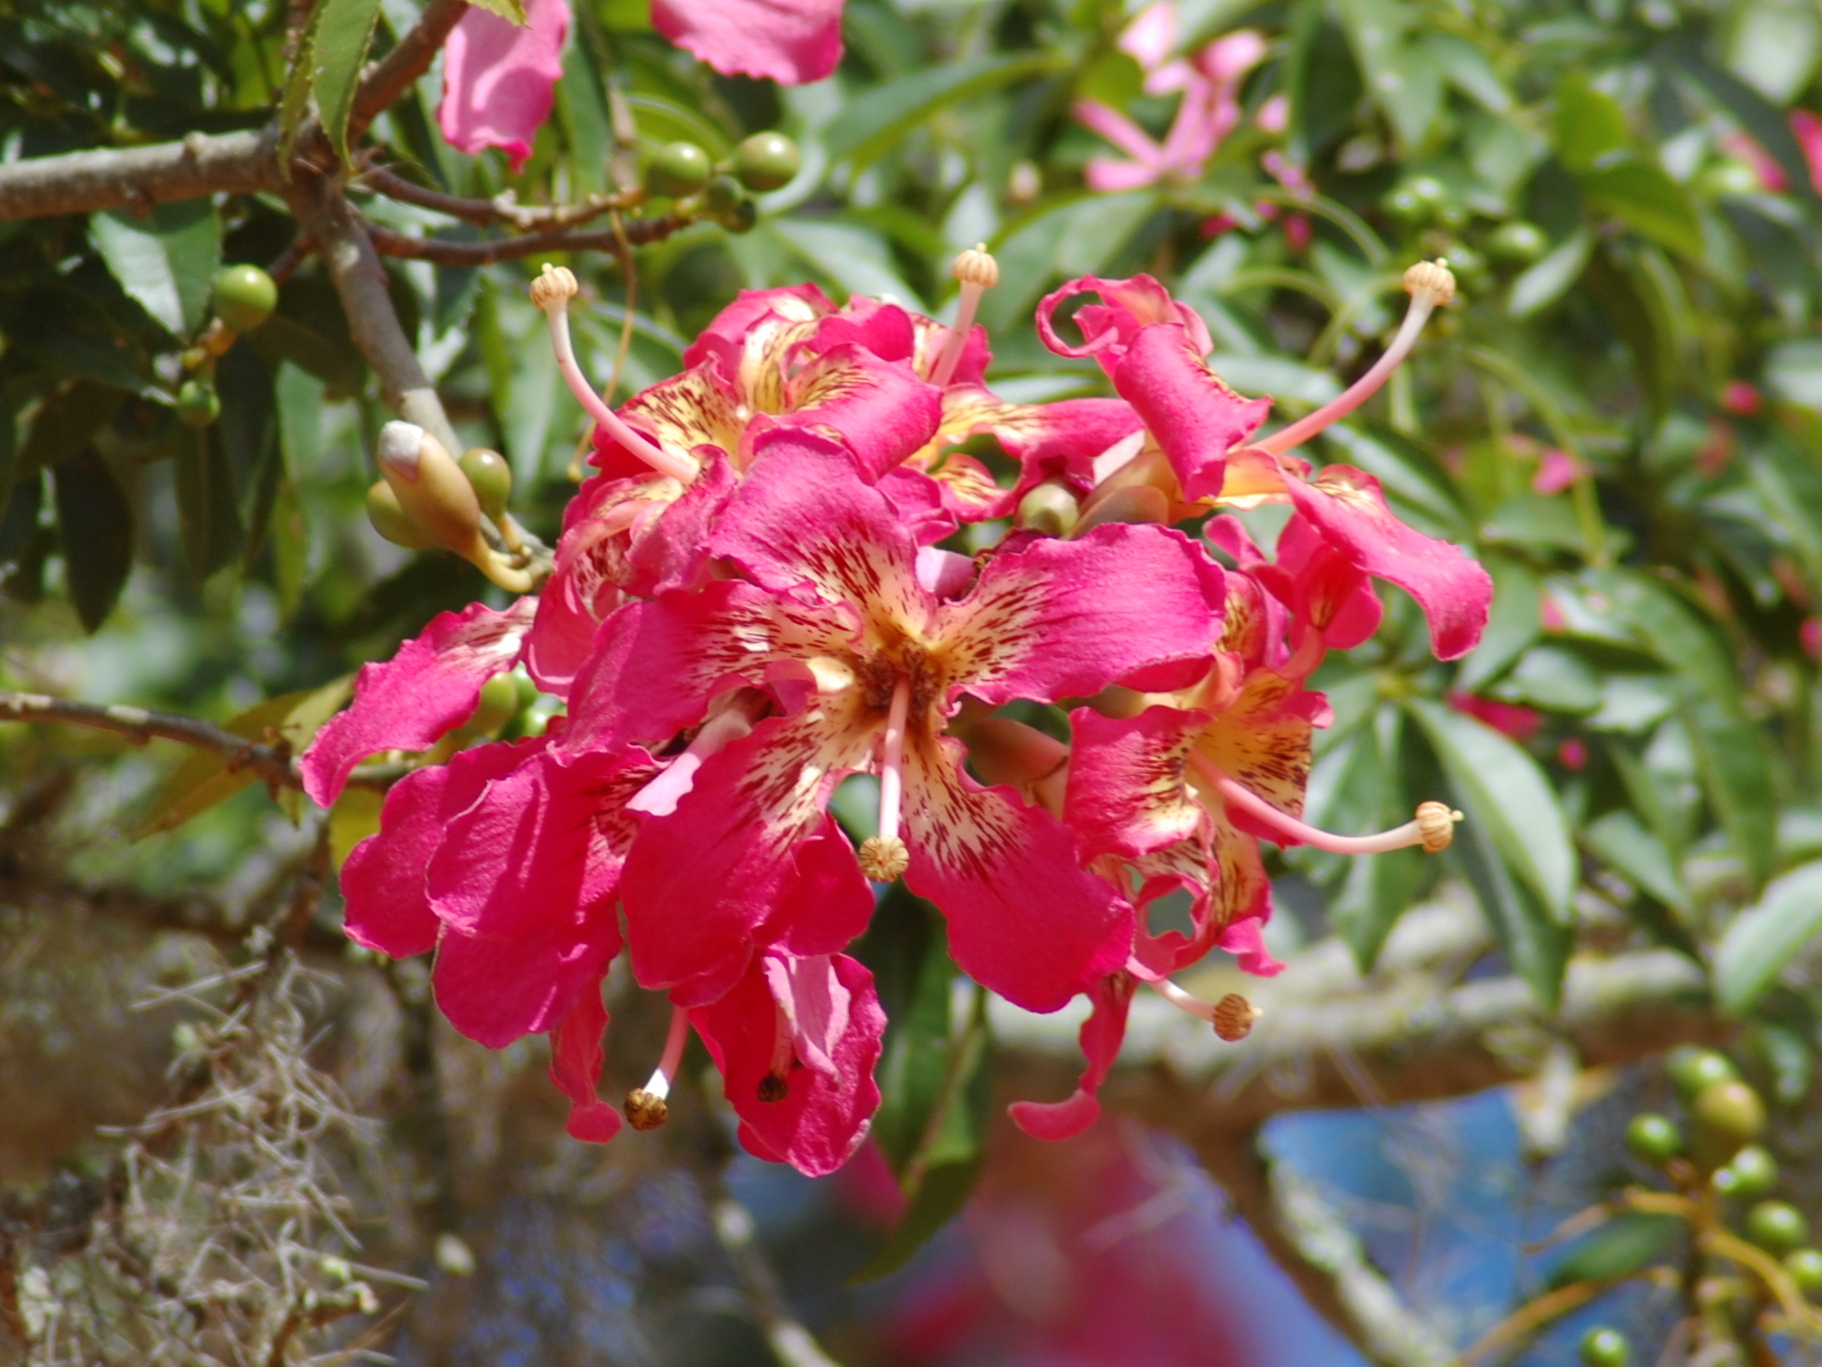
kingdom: Plantae
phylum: Tracheophyta
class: Magnoliopsida
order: Malvales
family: Malvaceae
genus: Ceiba
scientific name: Ceiba speciosa
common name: Silk-floss tree
